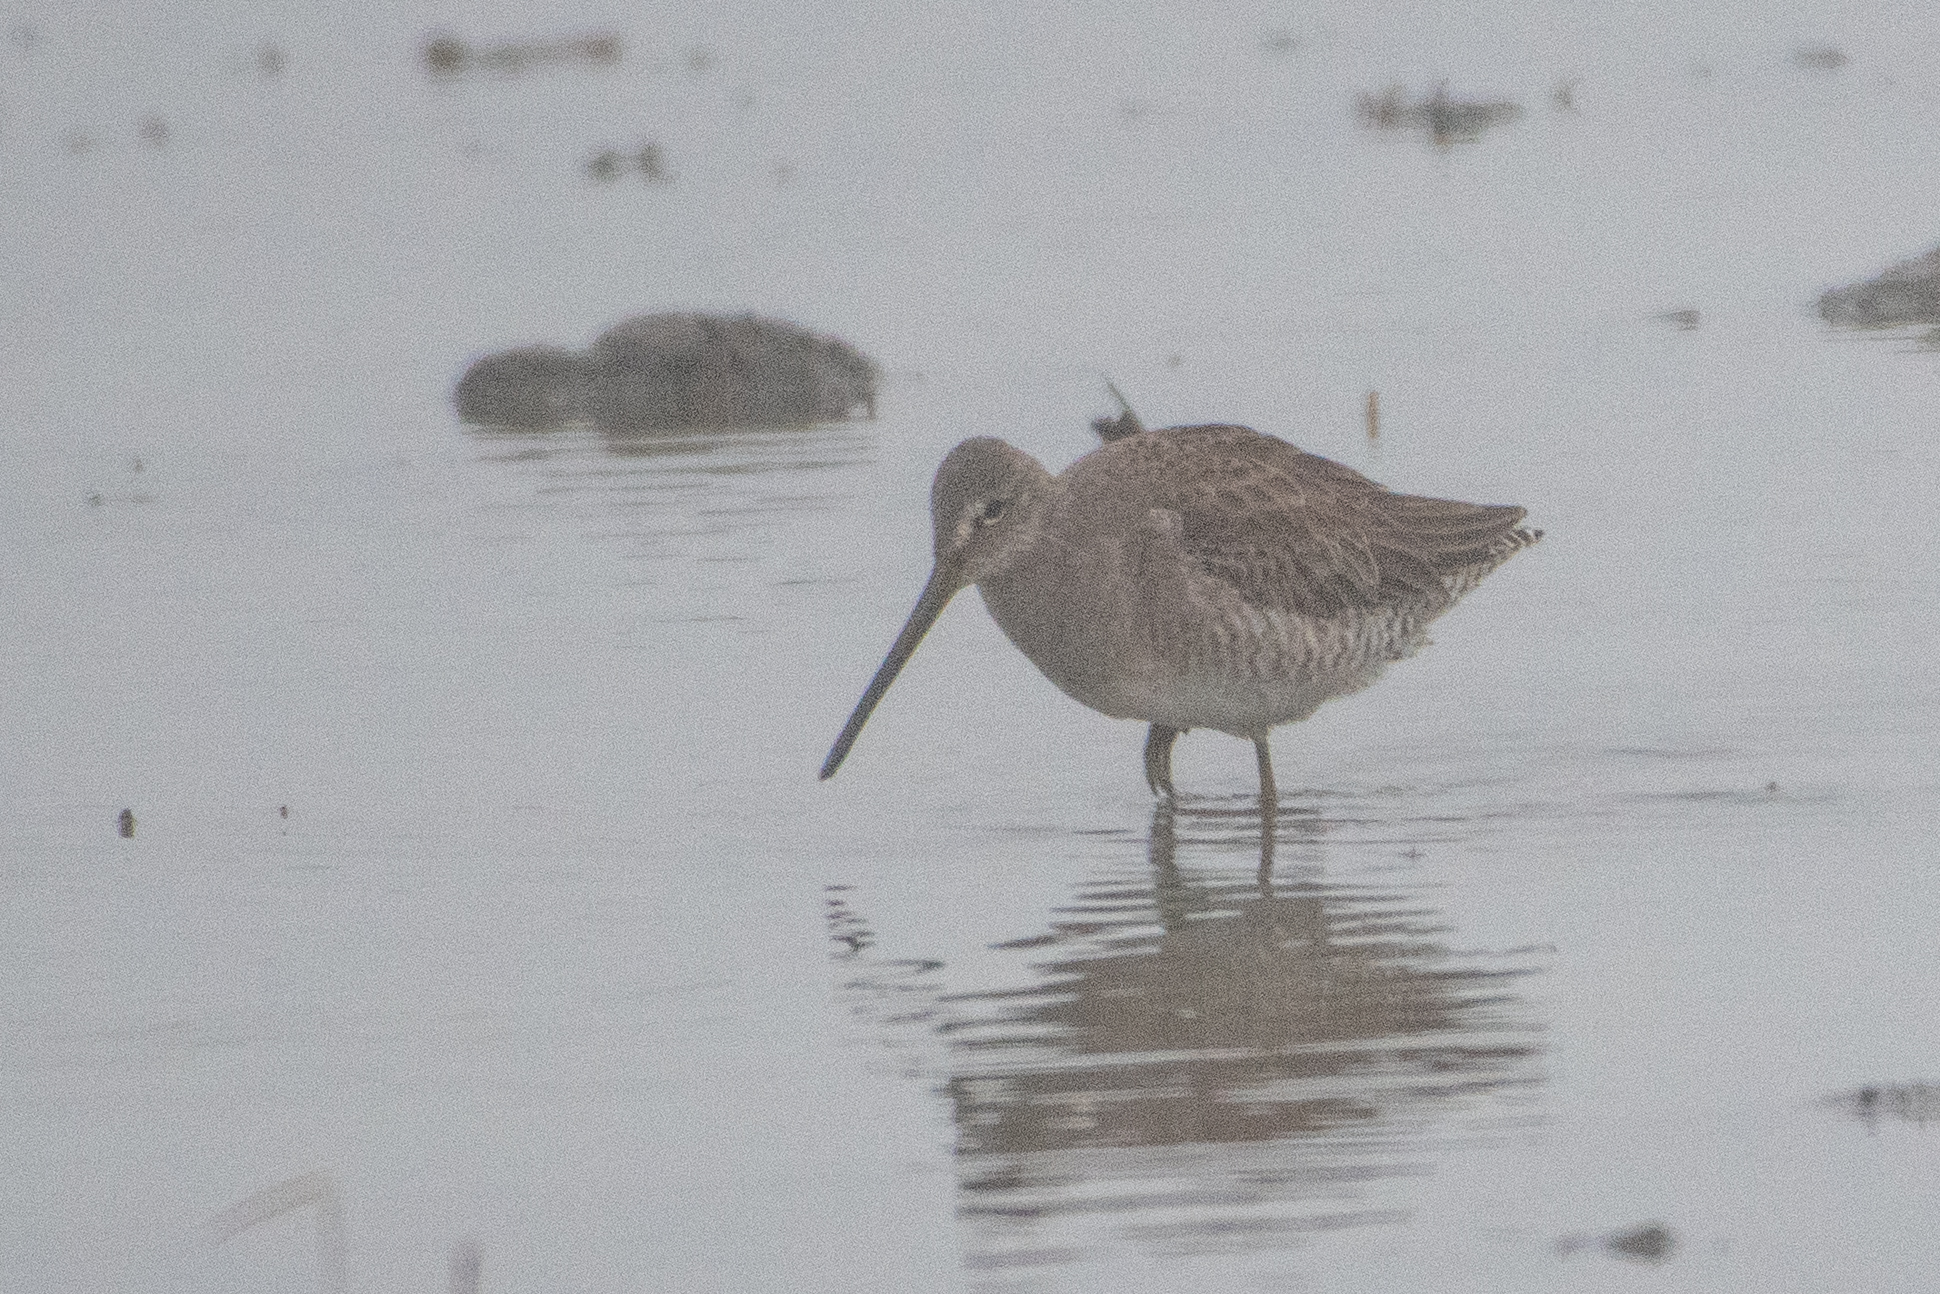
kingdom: Animalia
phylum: Chordata
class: Aves
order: Charadriiformes
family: Scolopacidae
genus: Limnodromus
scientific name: Limnodromus scolopaceus
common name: Long-billed dowitcher
